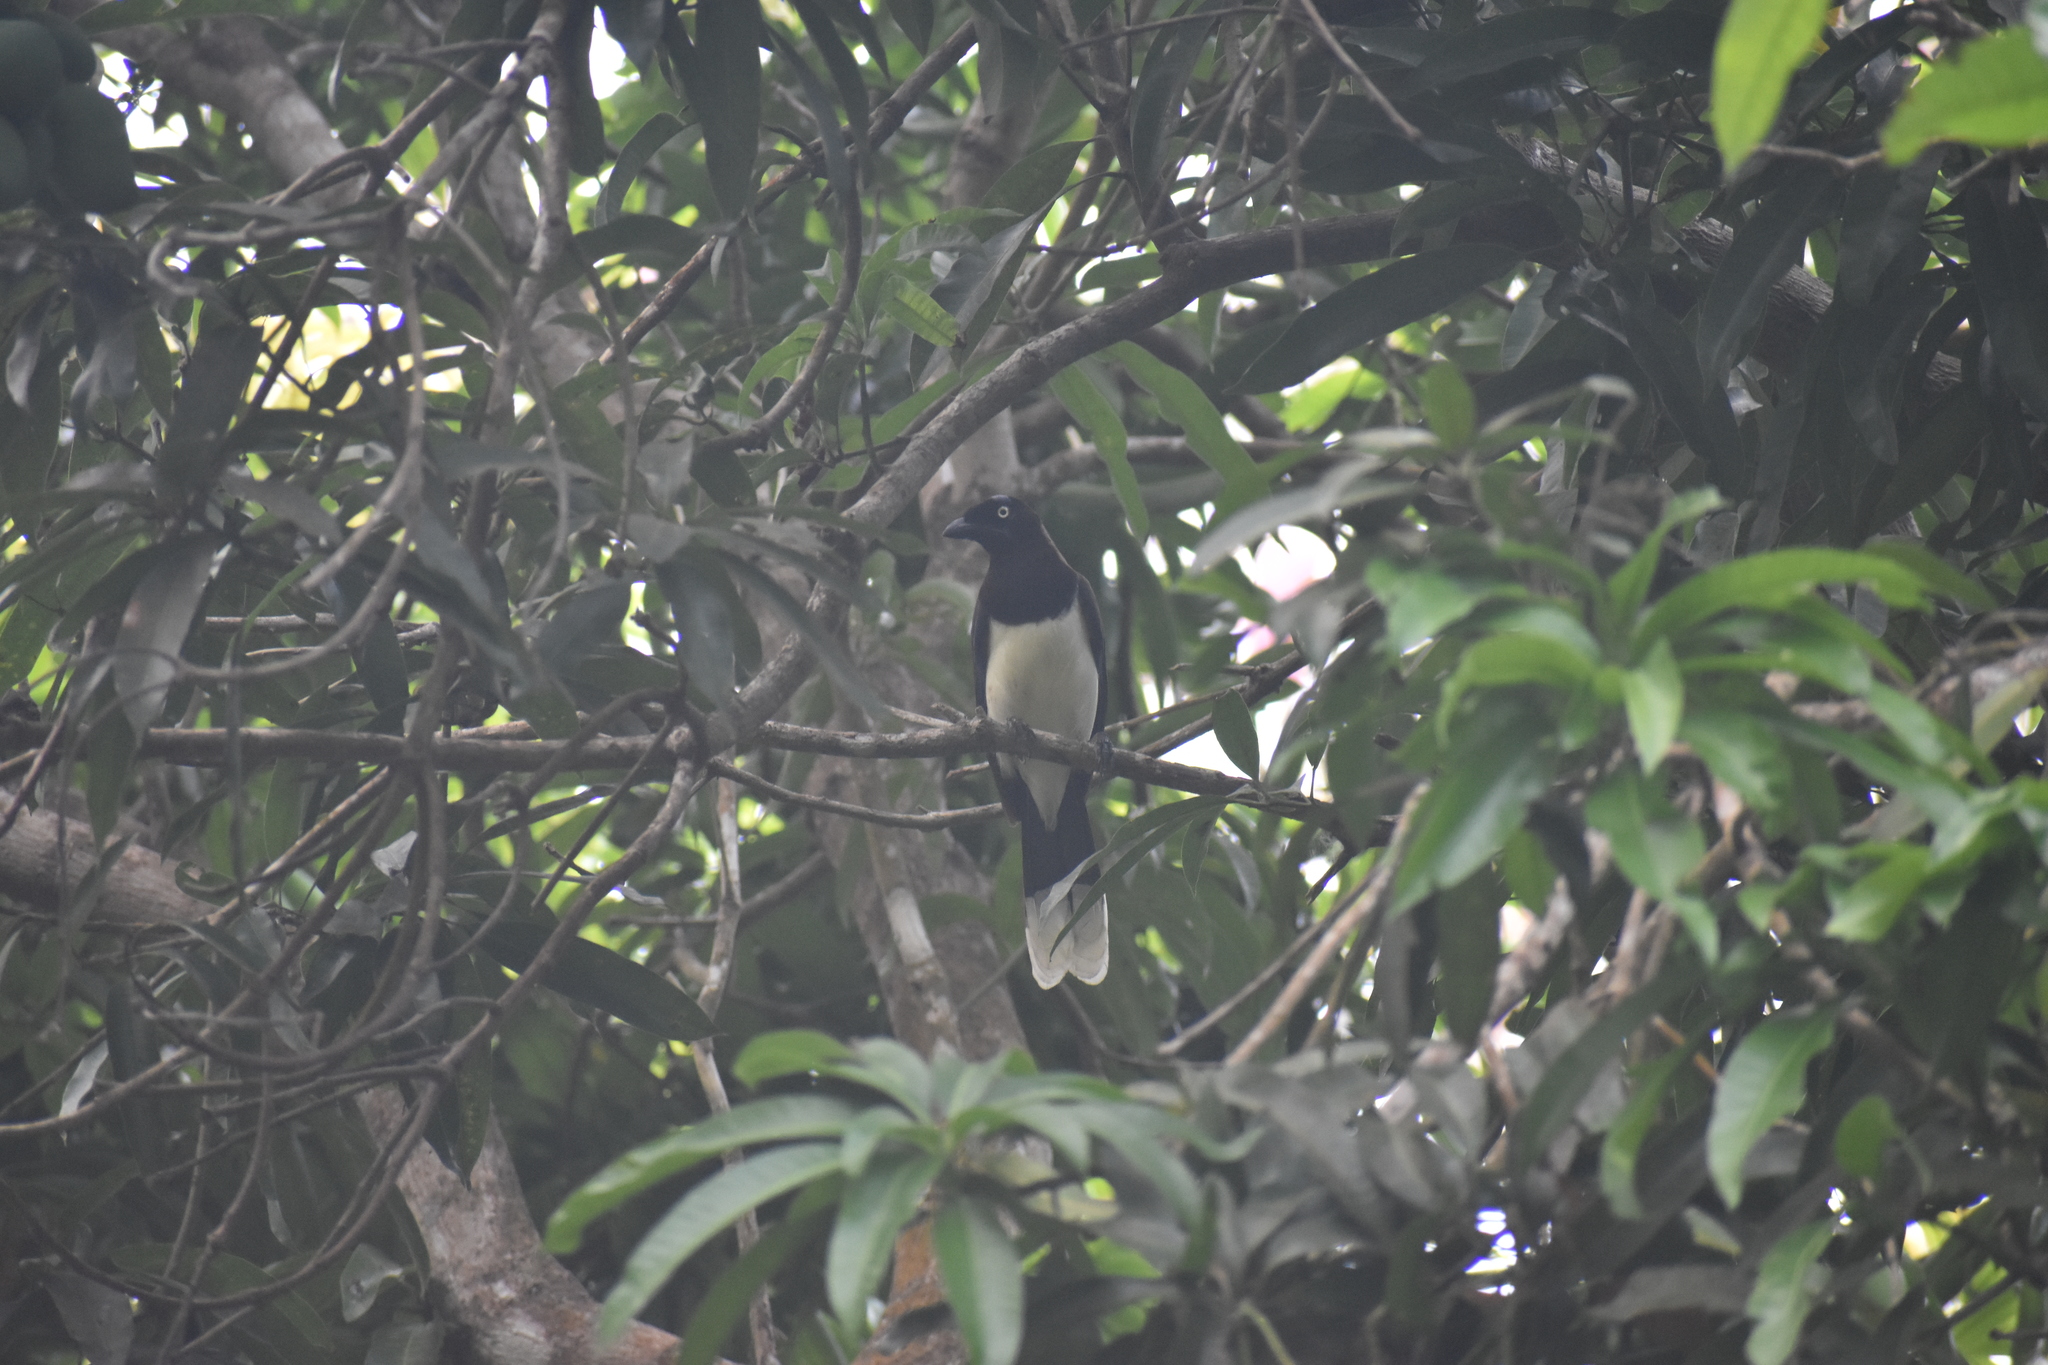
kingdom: Animalia
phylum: Chordata
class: Aves
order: Passeriformes
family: Corvidae
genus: Cyanocorax
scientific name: Cyanocorax affinis
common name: Black-chested jay
